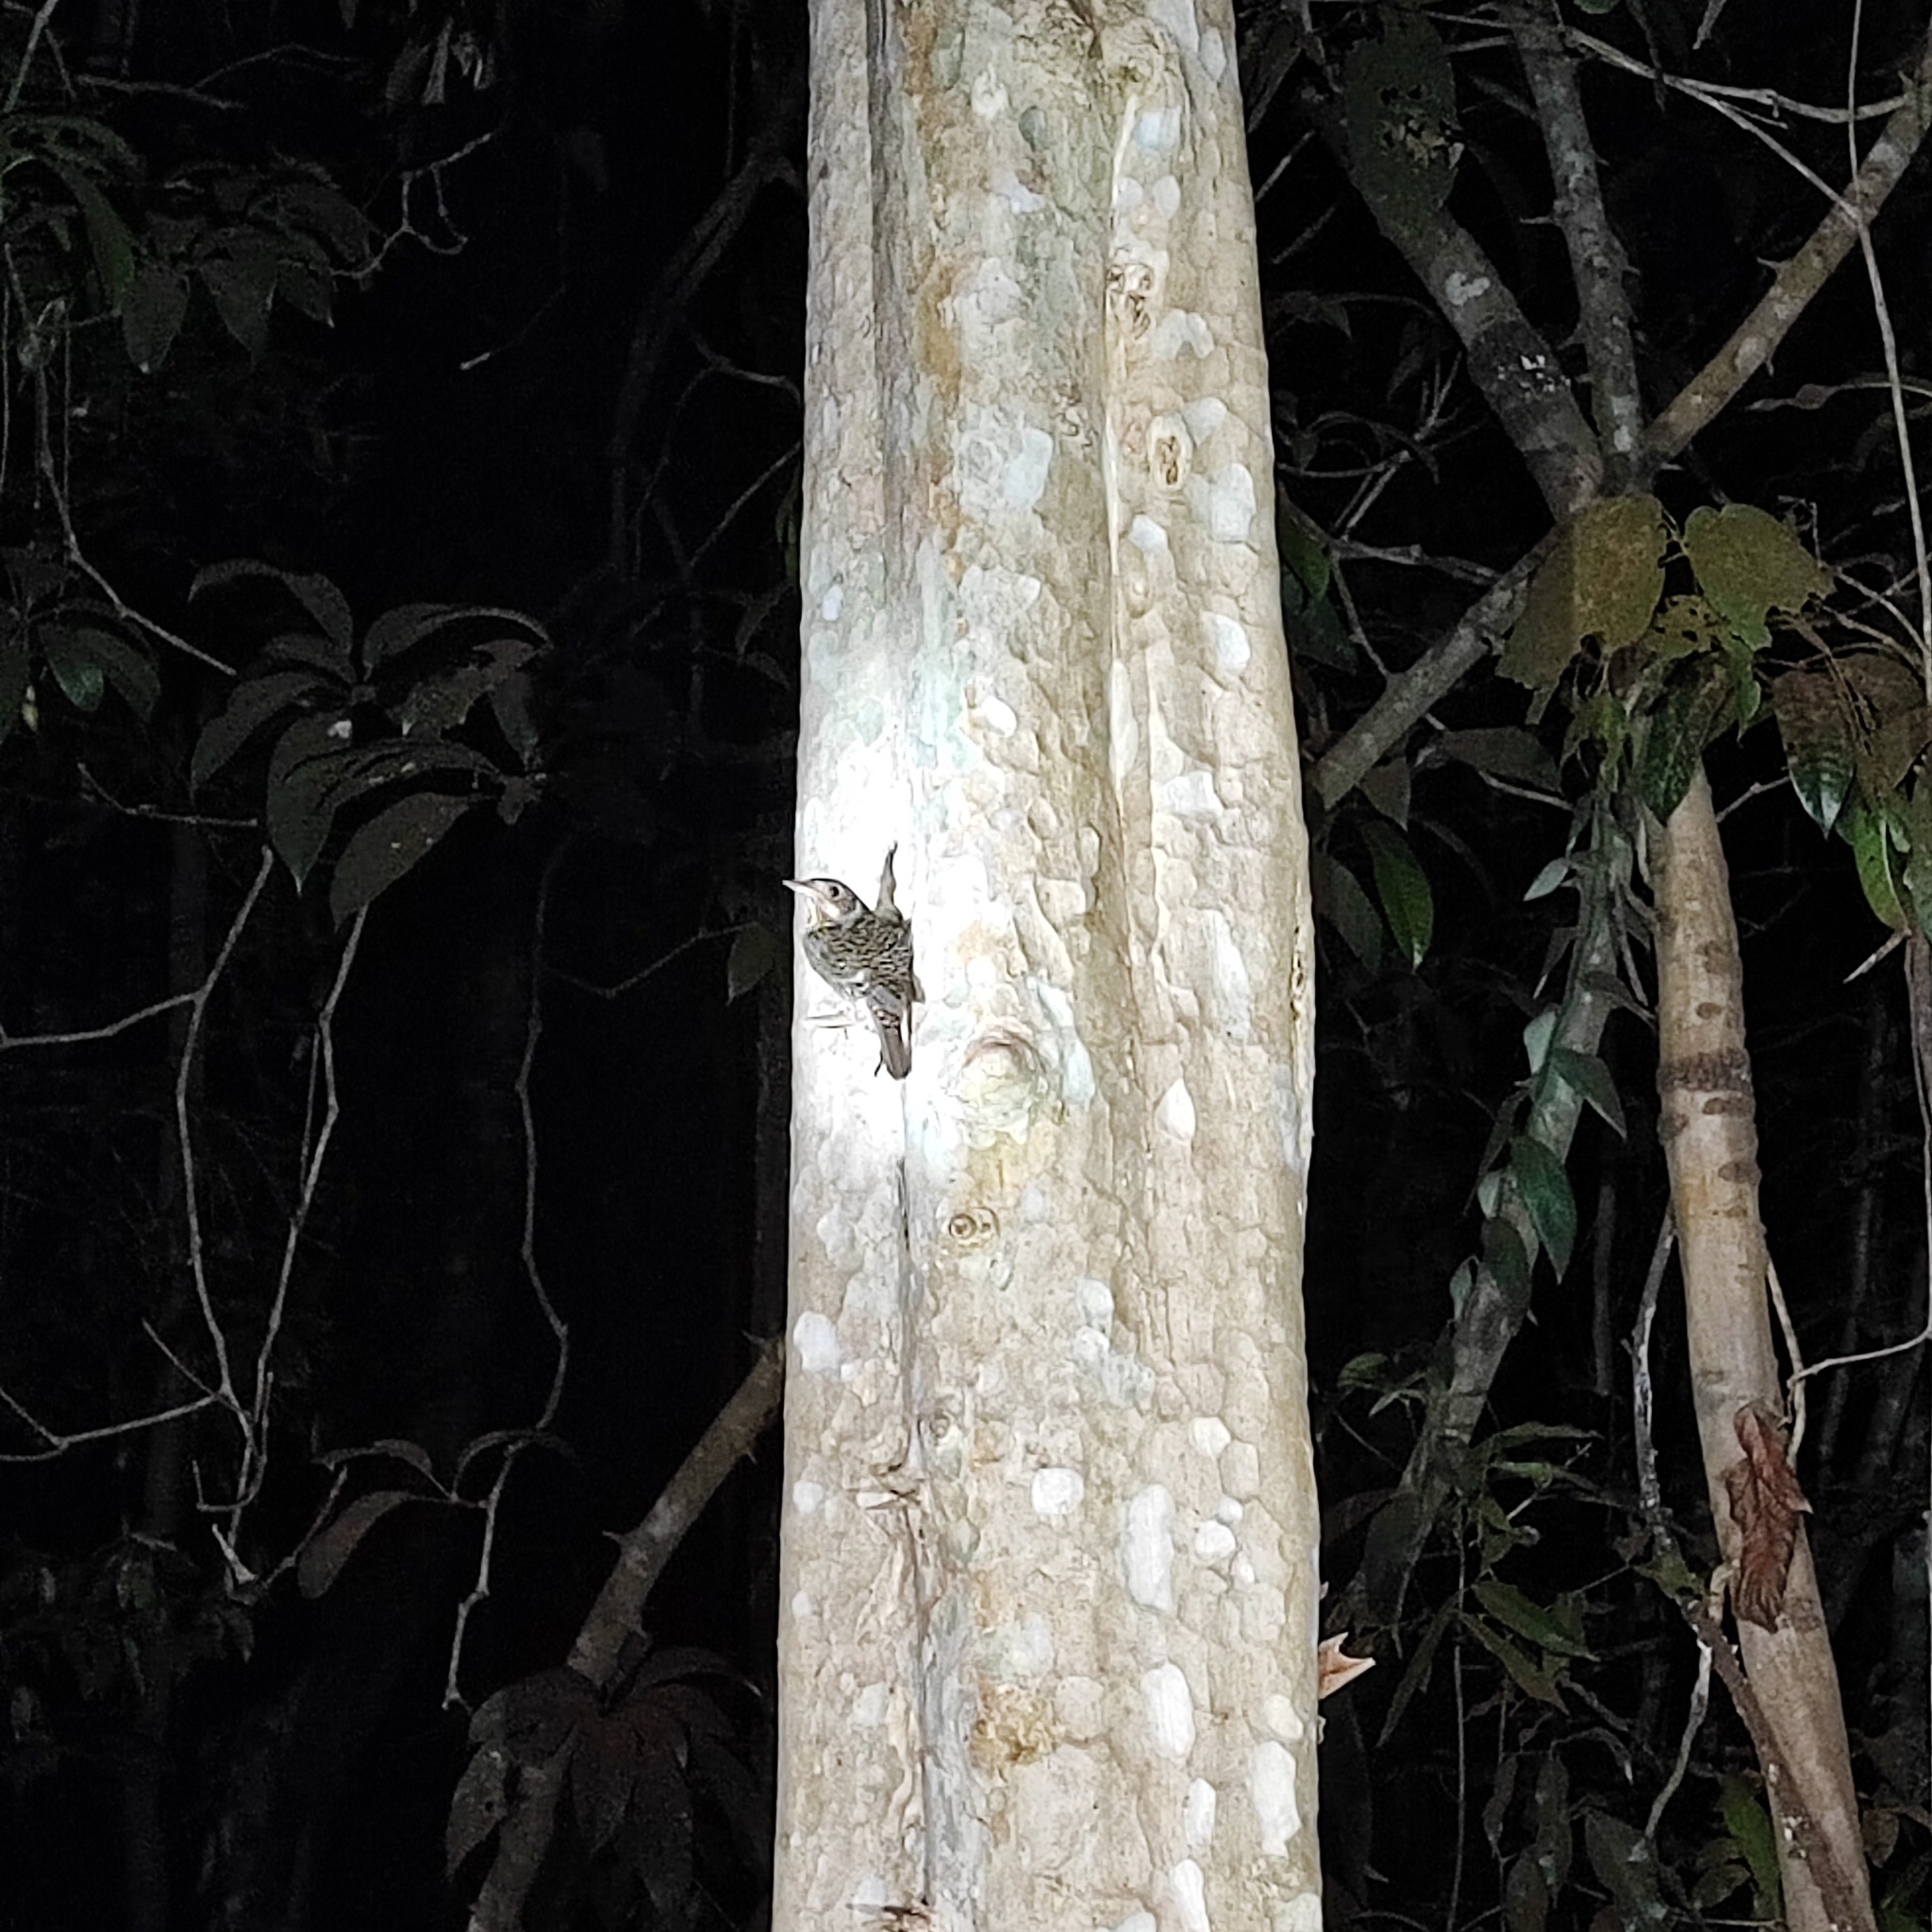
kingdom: Animalia
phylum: Chordata
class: Aves
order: Passeriformes
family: Muscicapidae
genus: Monticola
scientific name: Monticola gularis
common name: White-throated rock thrush
